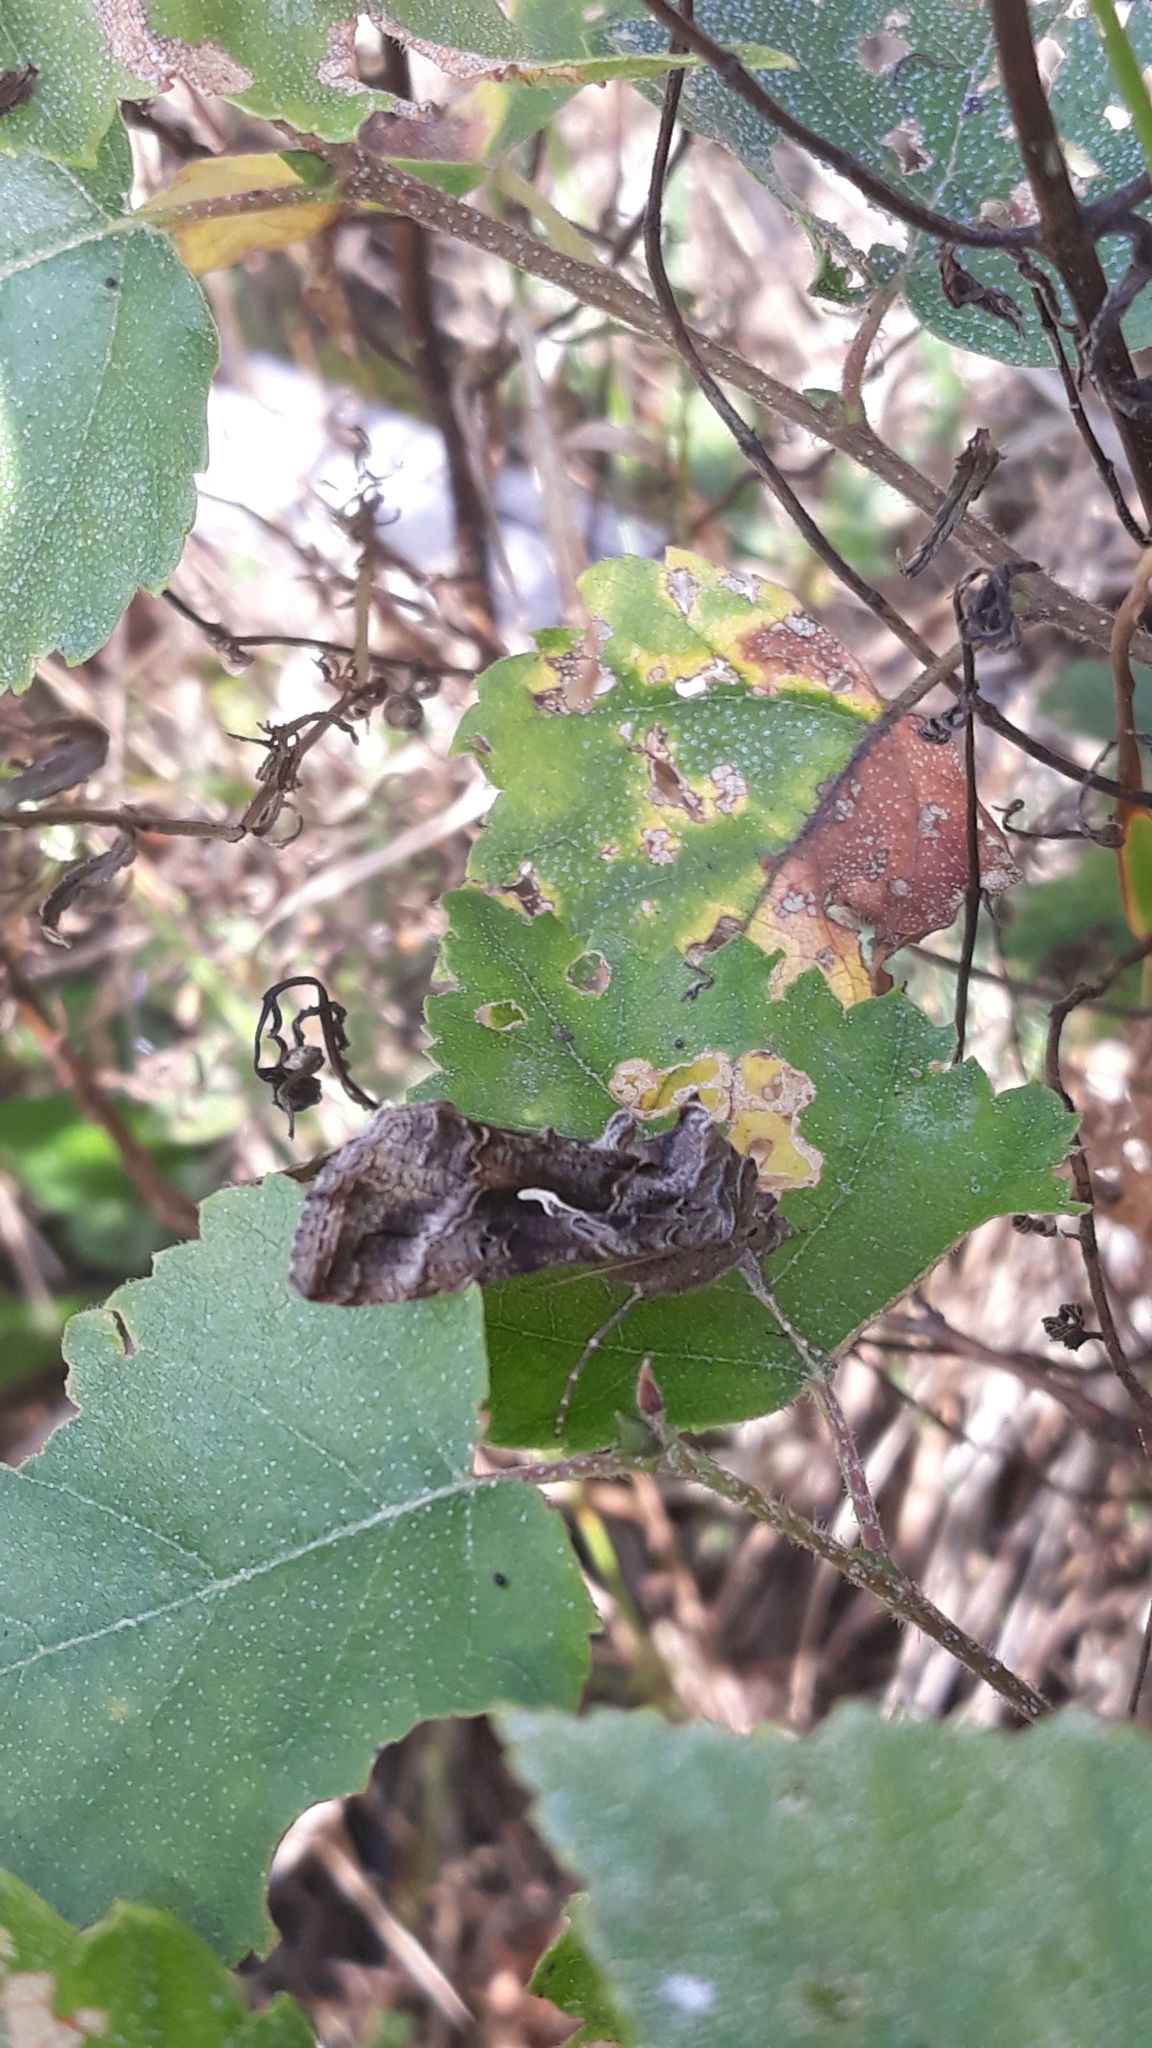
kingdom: Animalia
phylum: Arthropoda
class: Insecta
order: Lepidoptera
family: Noctuidae
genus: Autographa
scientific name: Autographa gamma
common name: Silver y
